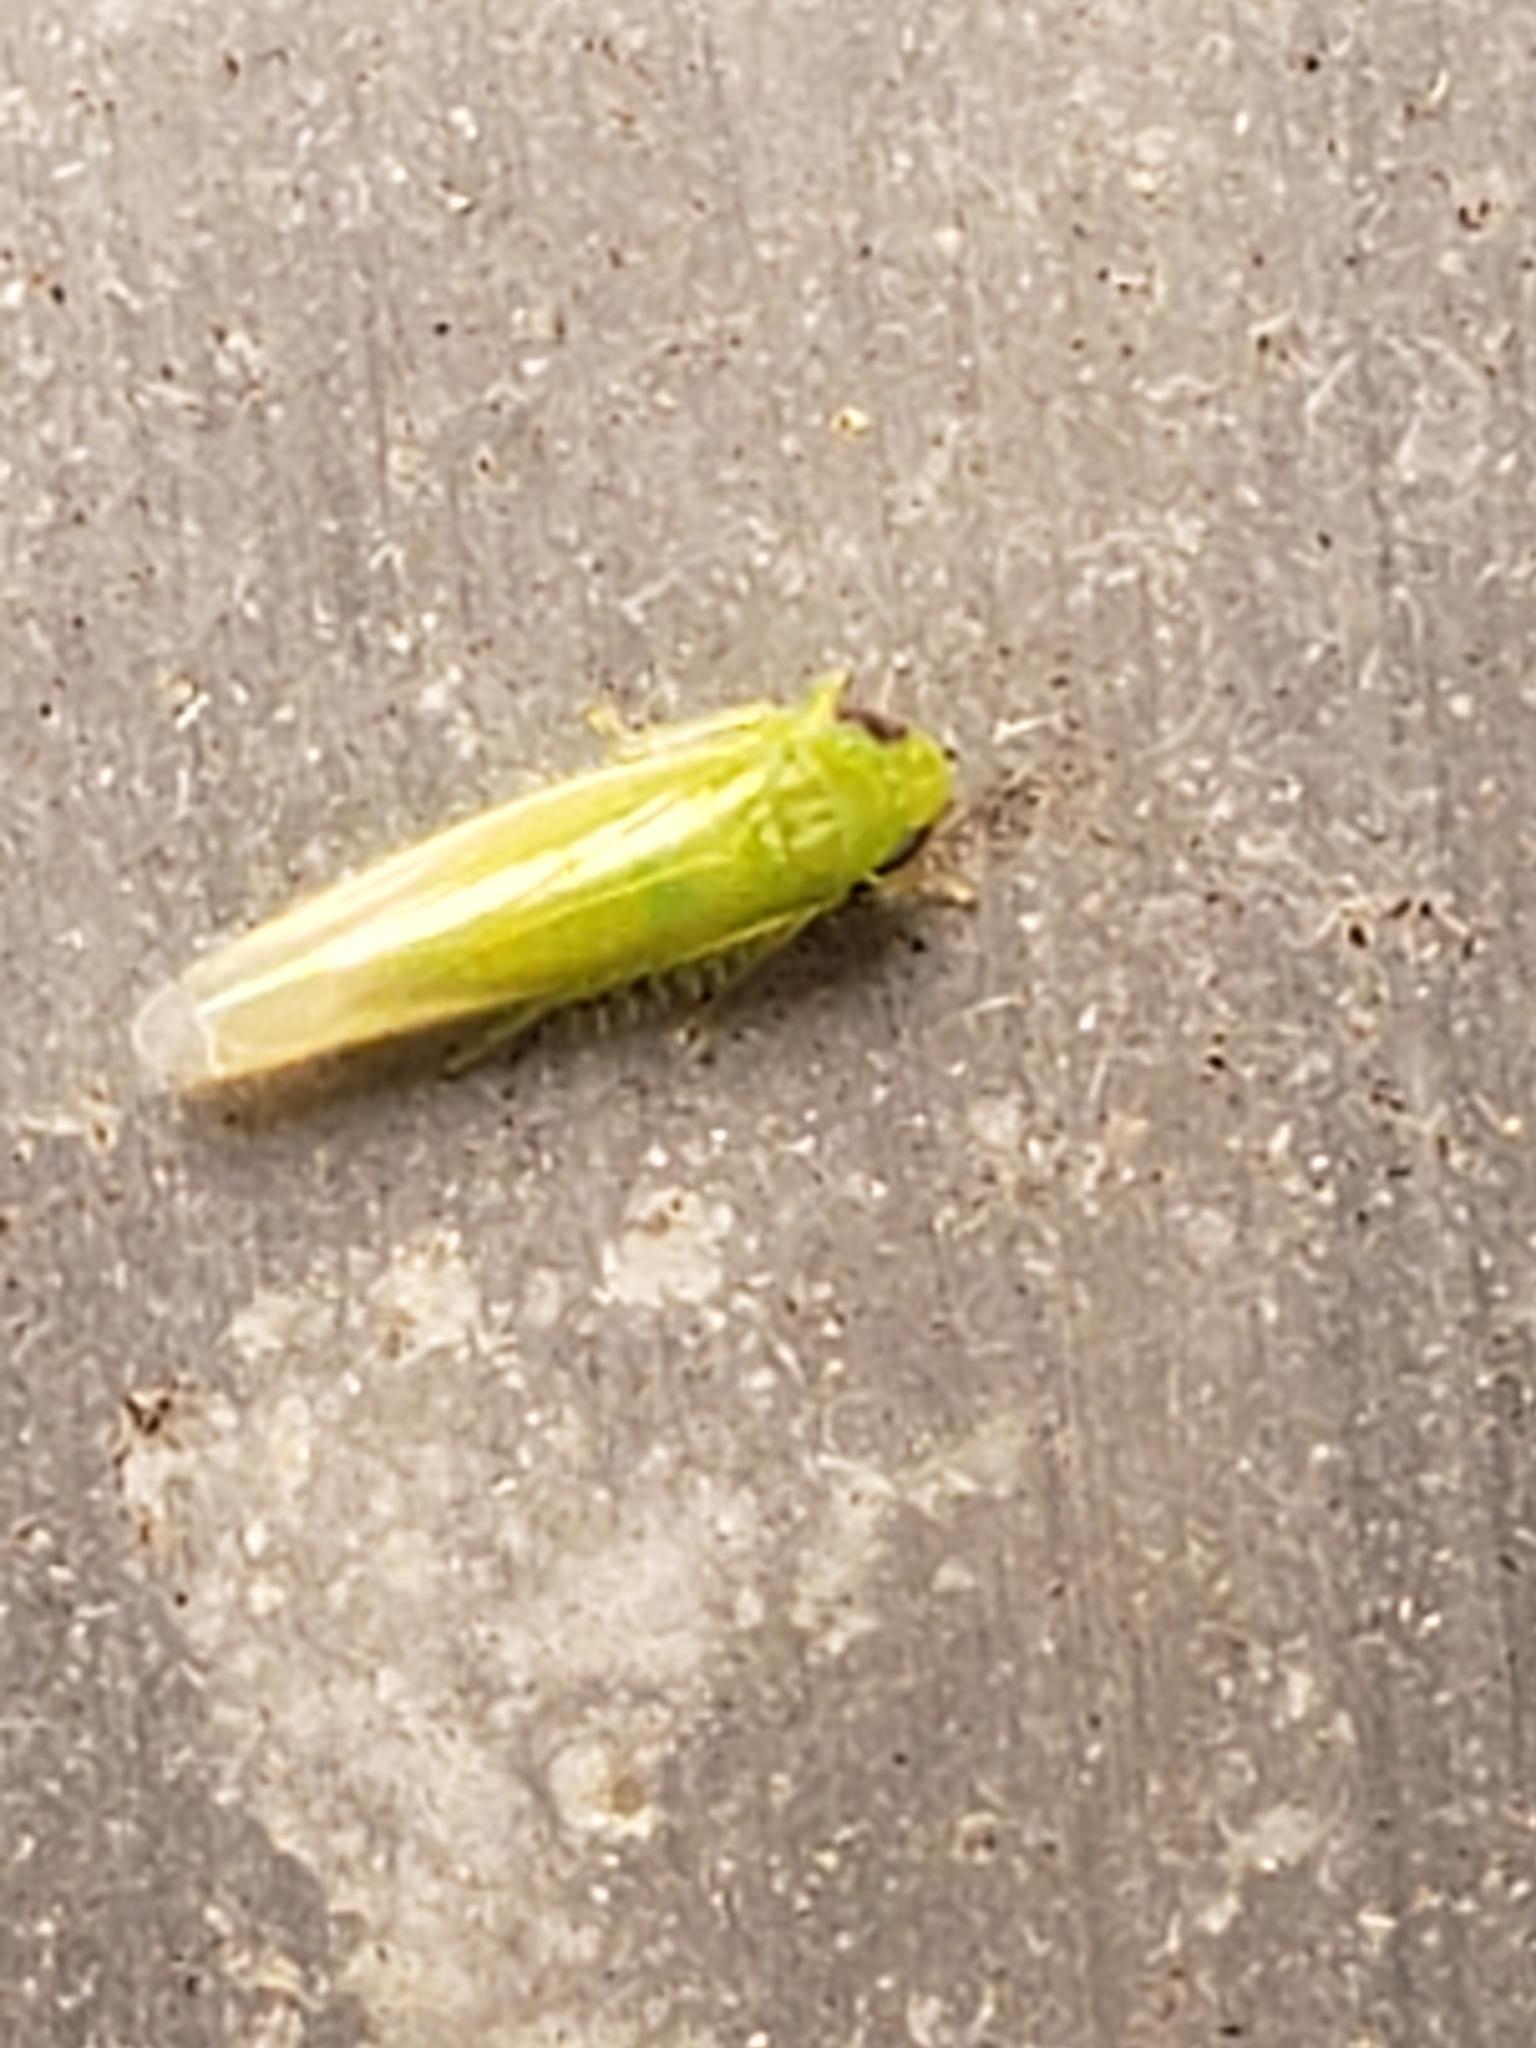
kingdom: Animalia
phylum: Arthropoda
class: Insecta
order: Hemiptera
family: Cicadellidae
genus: Empoasca
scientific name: Empoasca fabae
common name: Potato leafhopper
